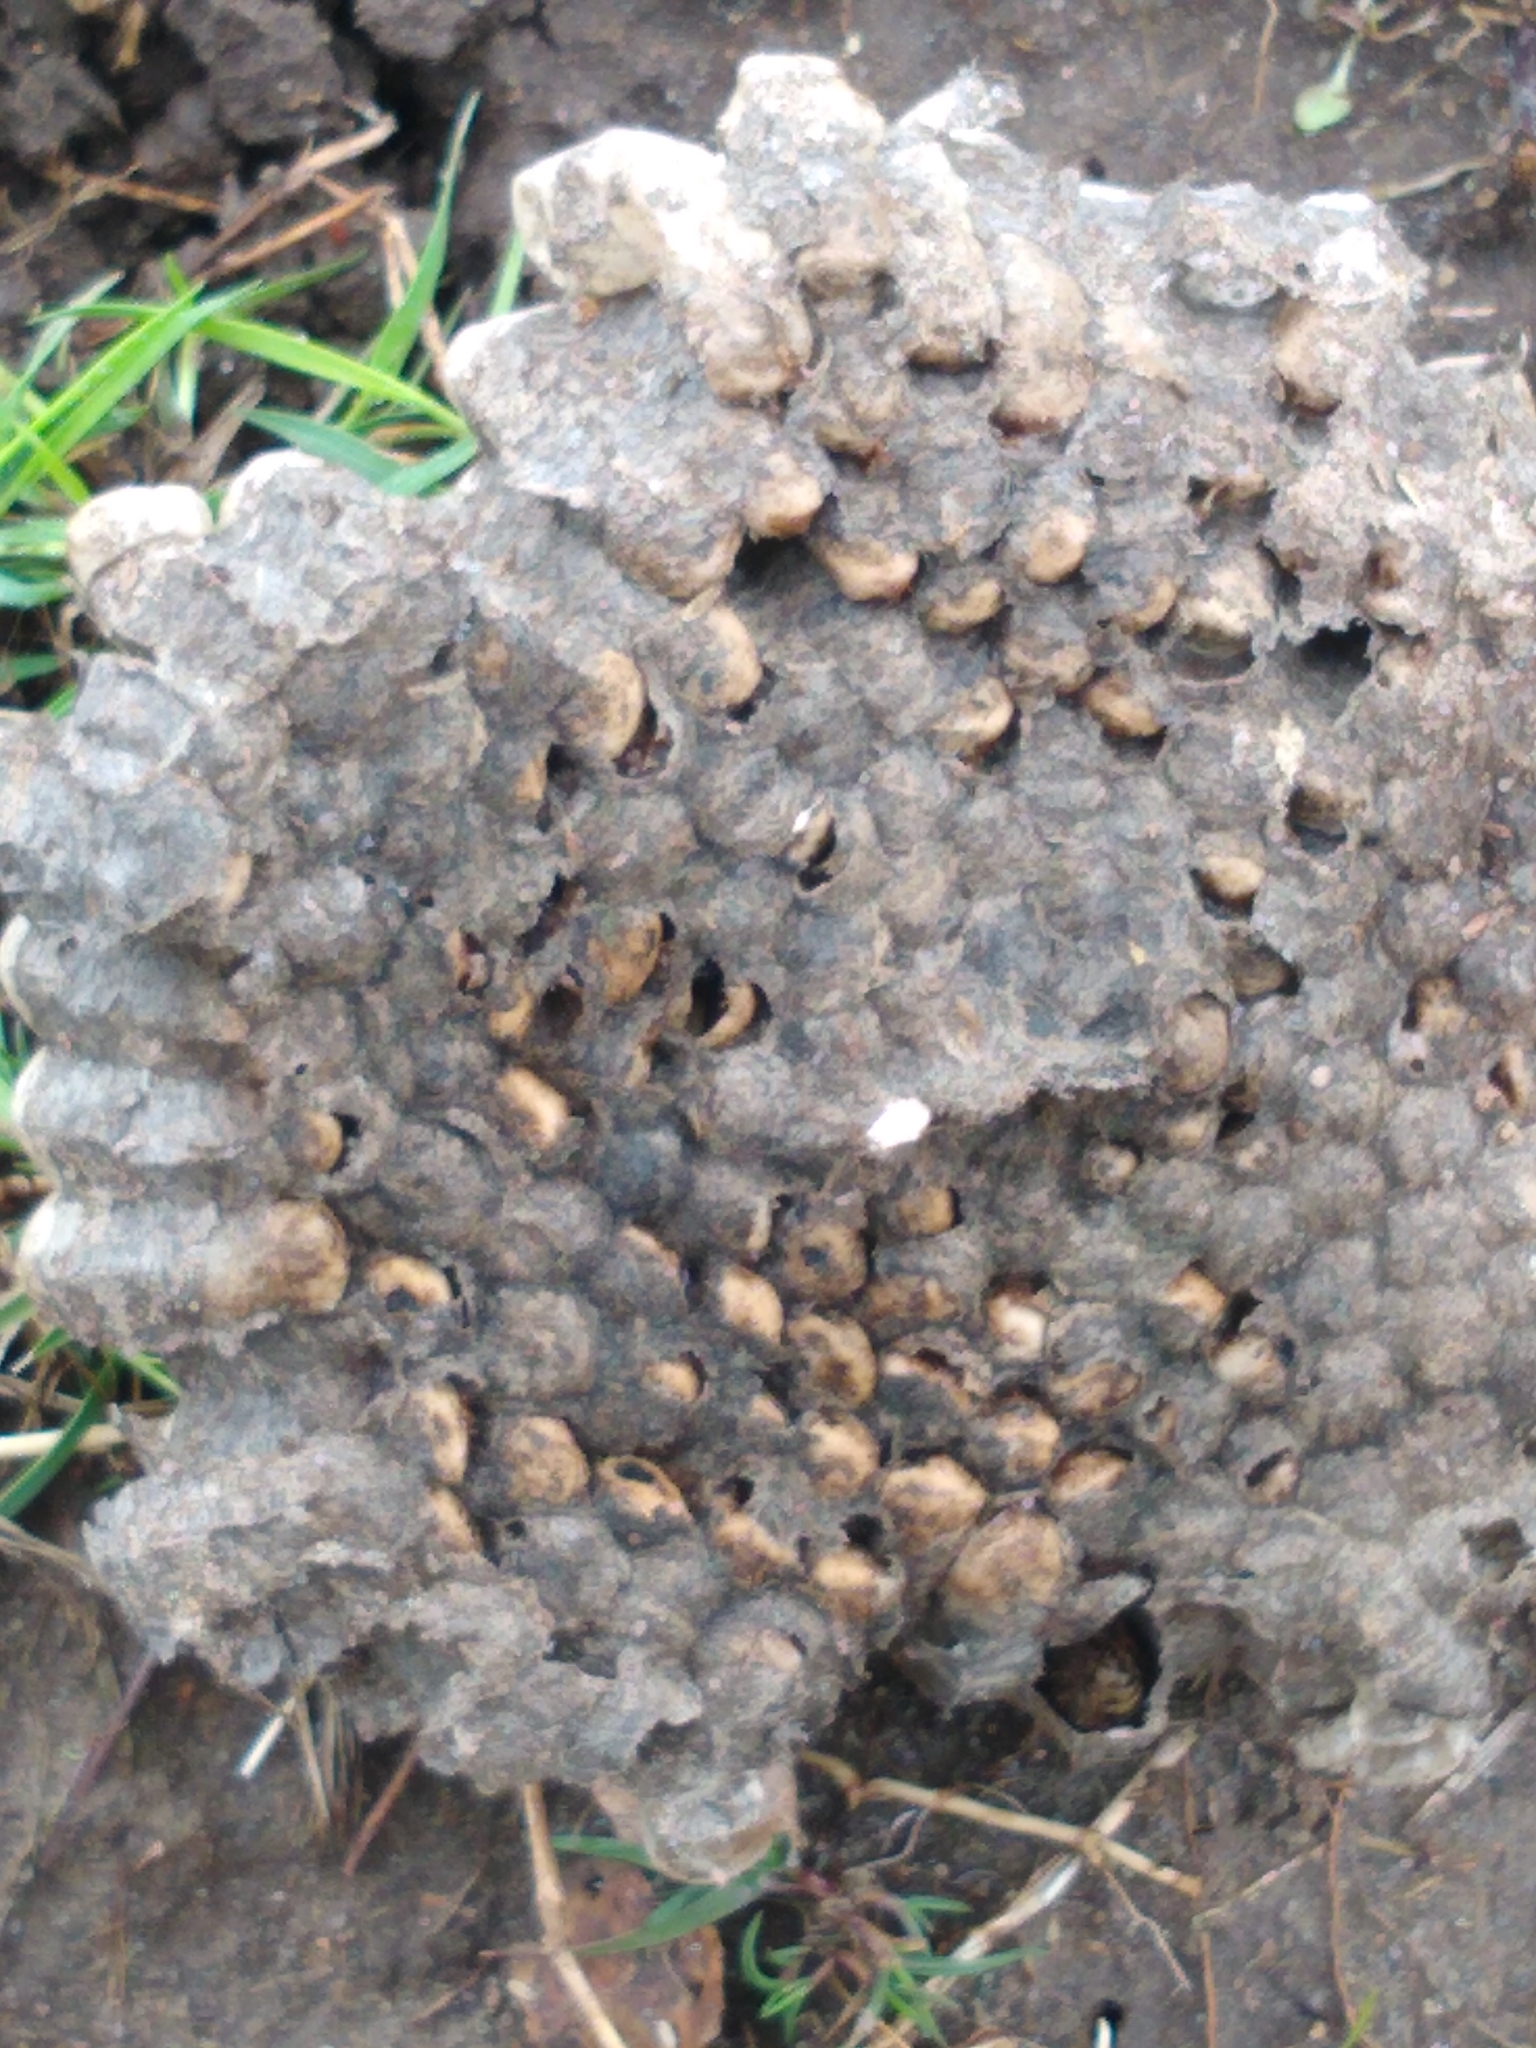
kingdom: Animalia
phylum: Arthropoda
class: Insecta
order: Hymenoptera
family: Eumenidae
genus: Polistes
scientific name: Polistes
